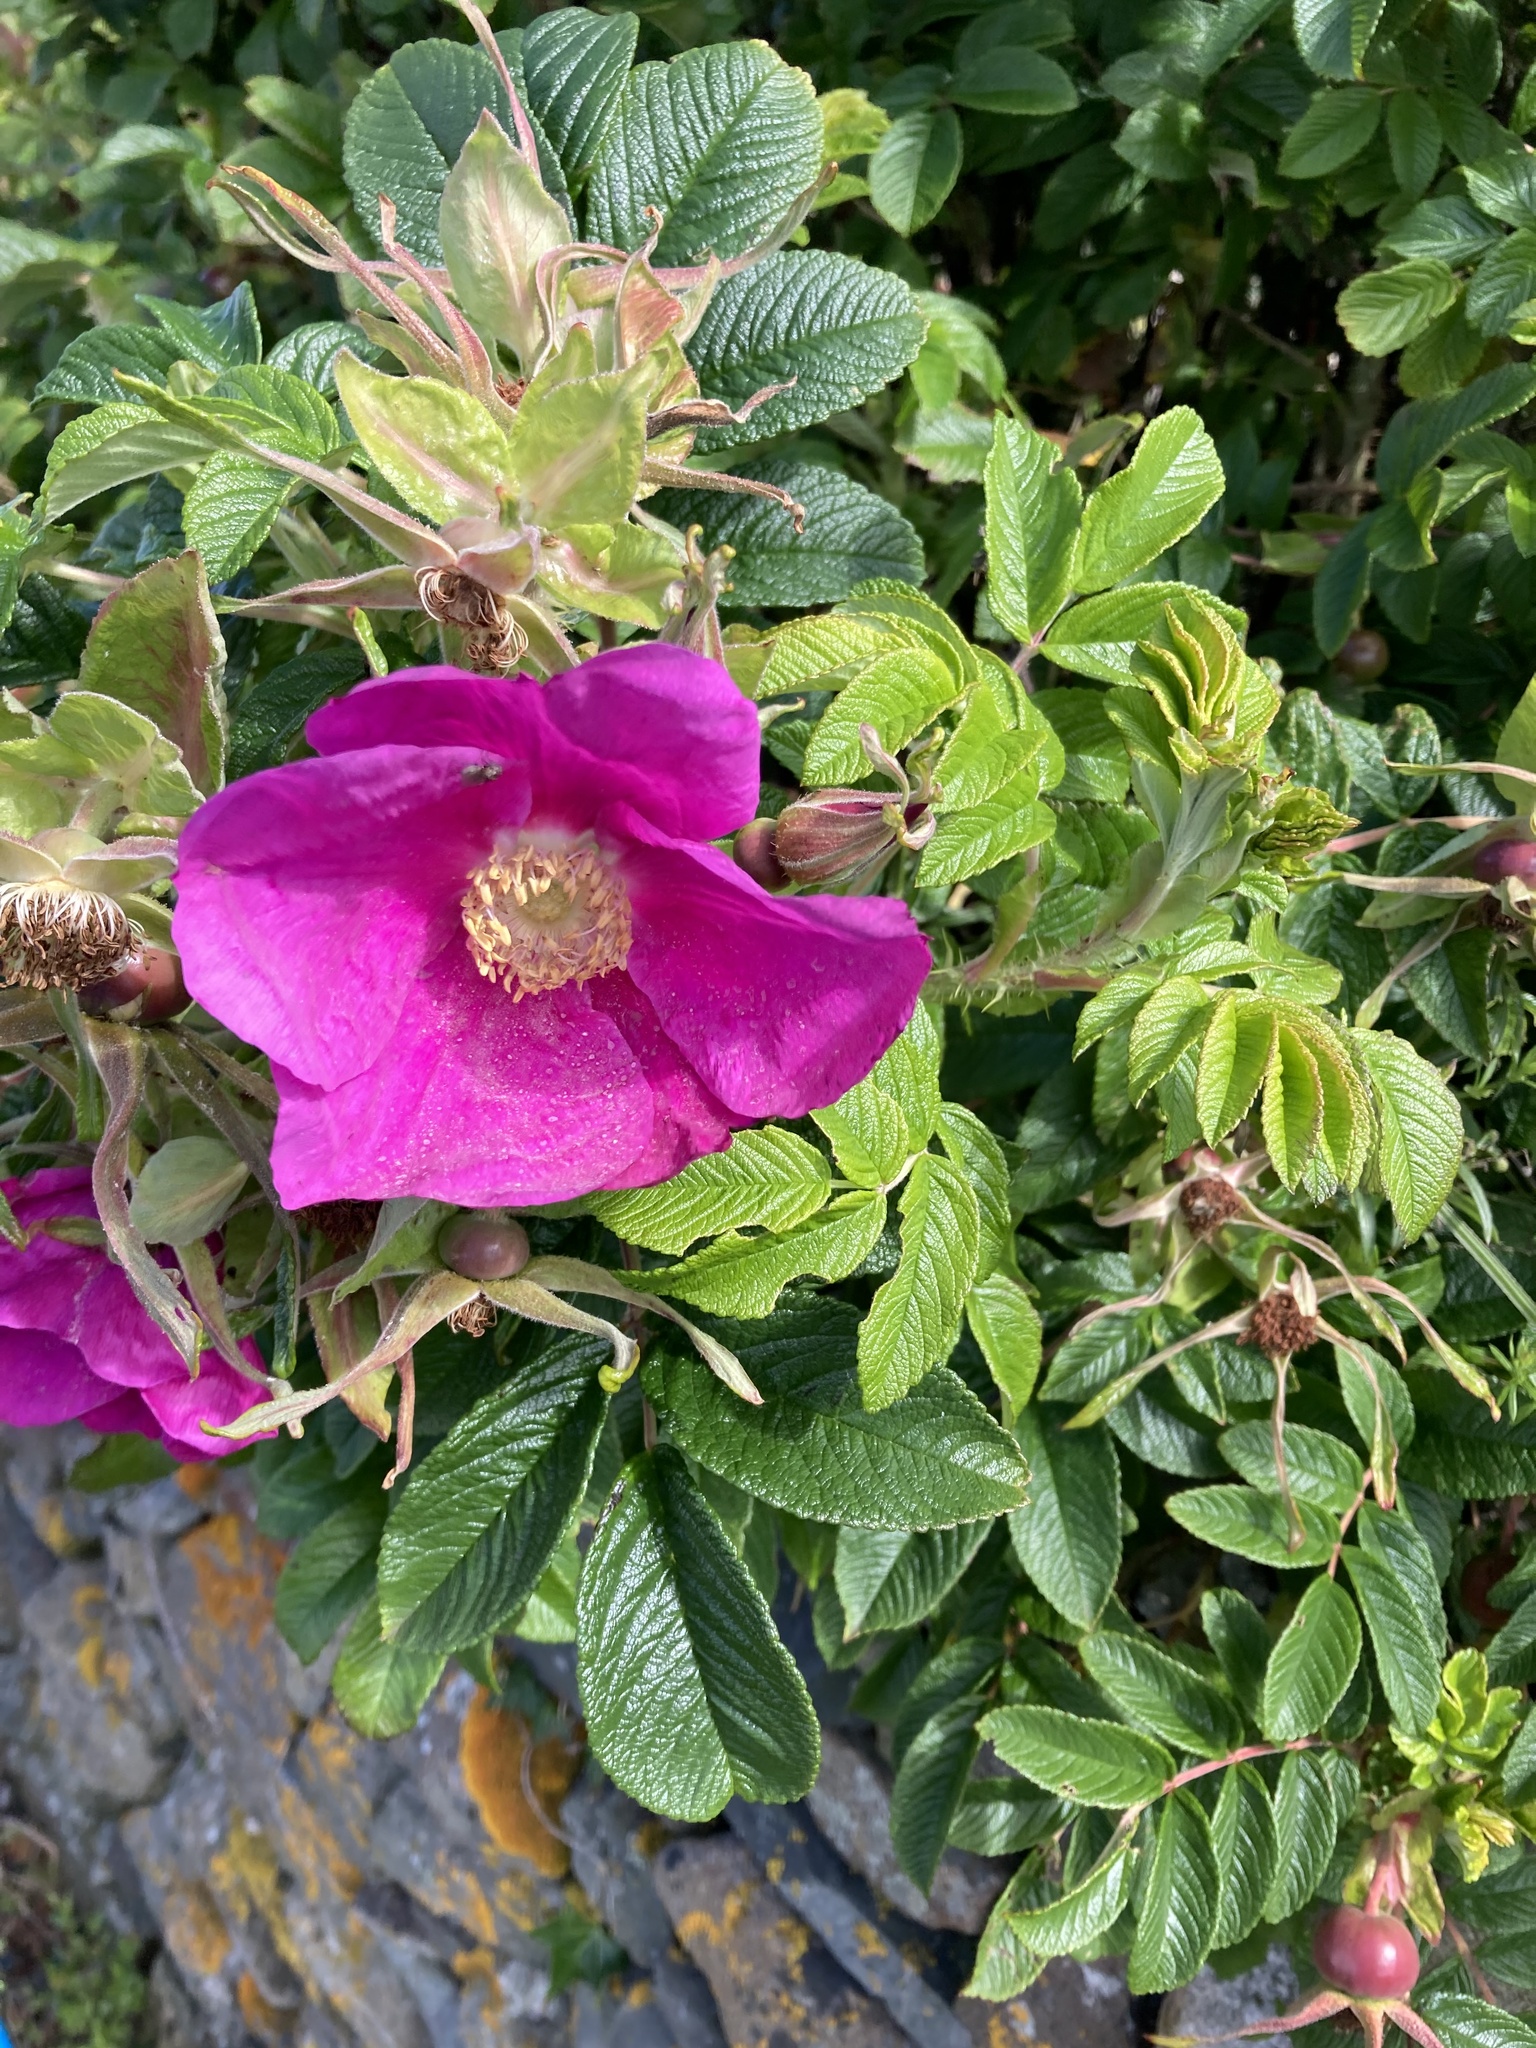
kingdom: Plantae
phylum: Tracheophyta
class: Magnoliopsida
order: Rosales
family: Rosaceae
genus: Rosa
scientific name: Rosa rugosa
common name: Japanese rose
